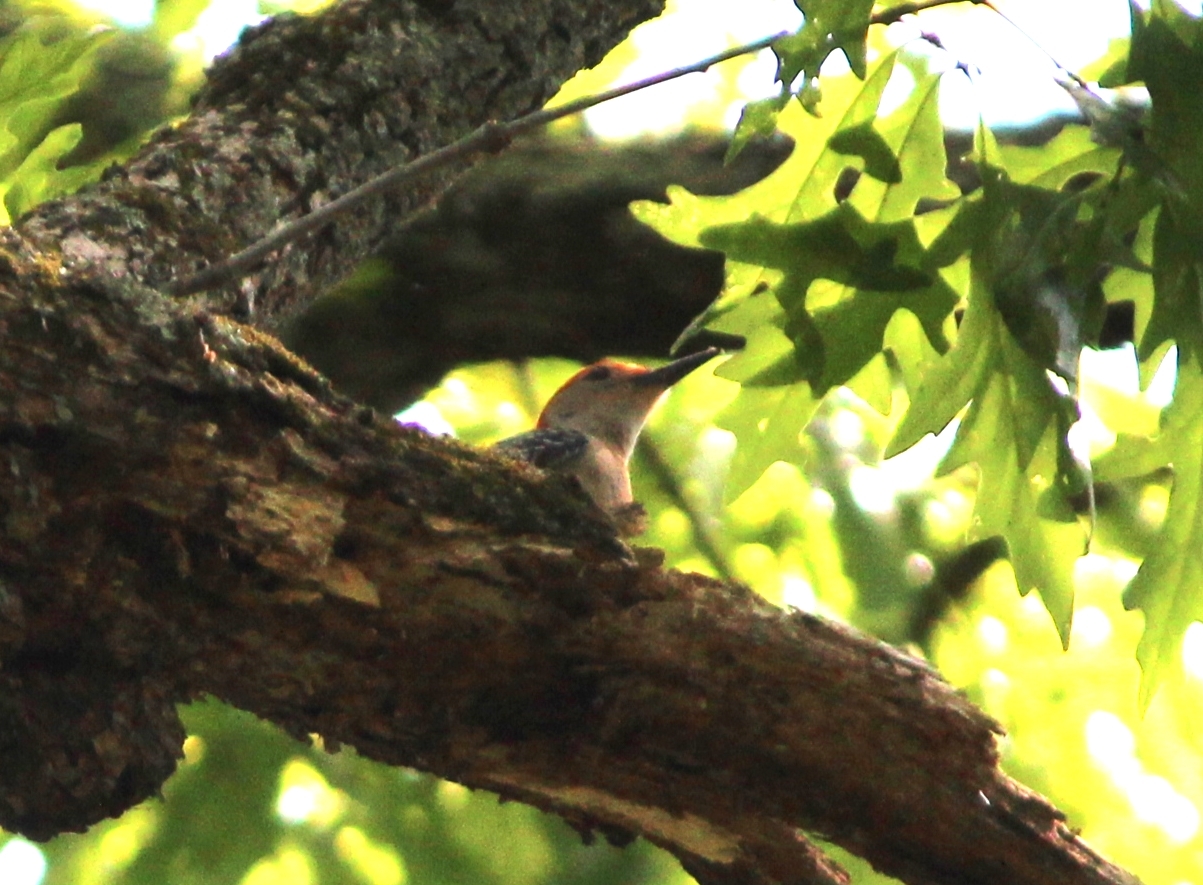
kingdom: Animalia
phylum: Chordata
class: Aves
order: Piciformes
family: Picidae
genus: Melanerpes
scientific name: Melanerpes carolinus
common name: Red-bellied woodpecker
